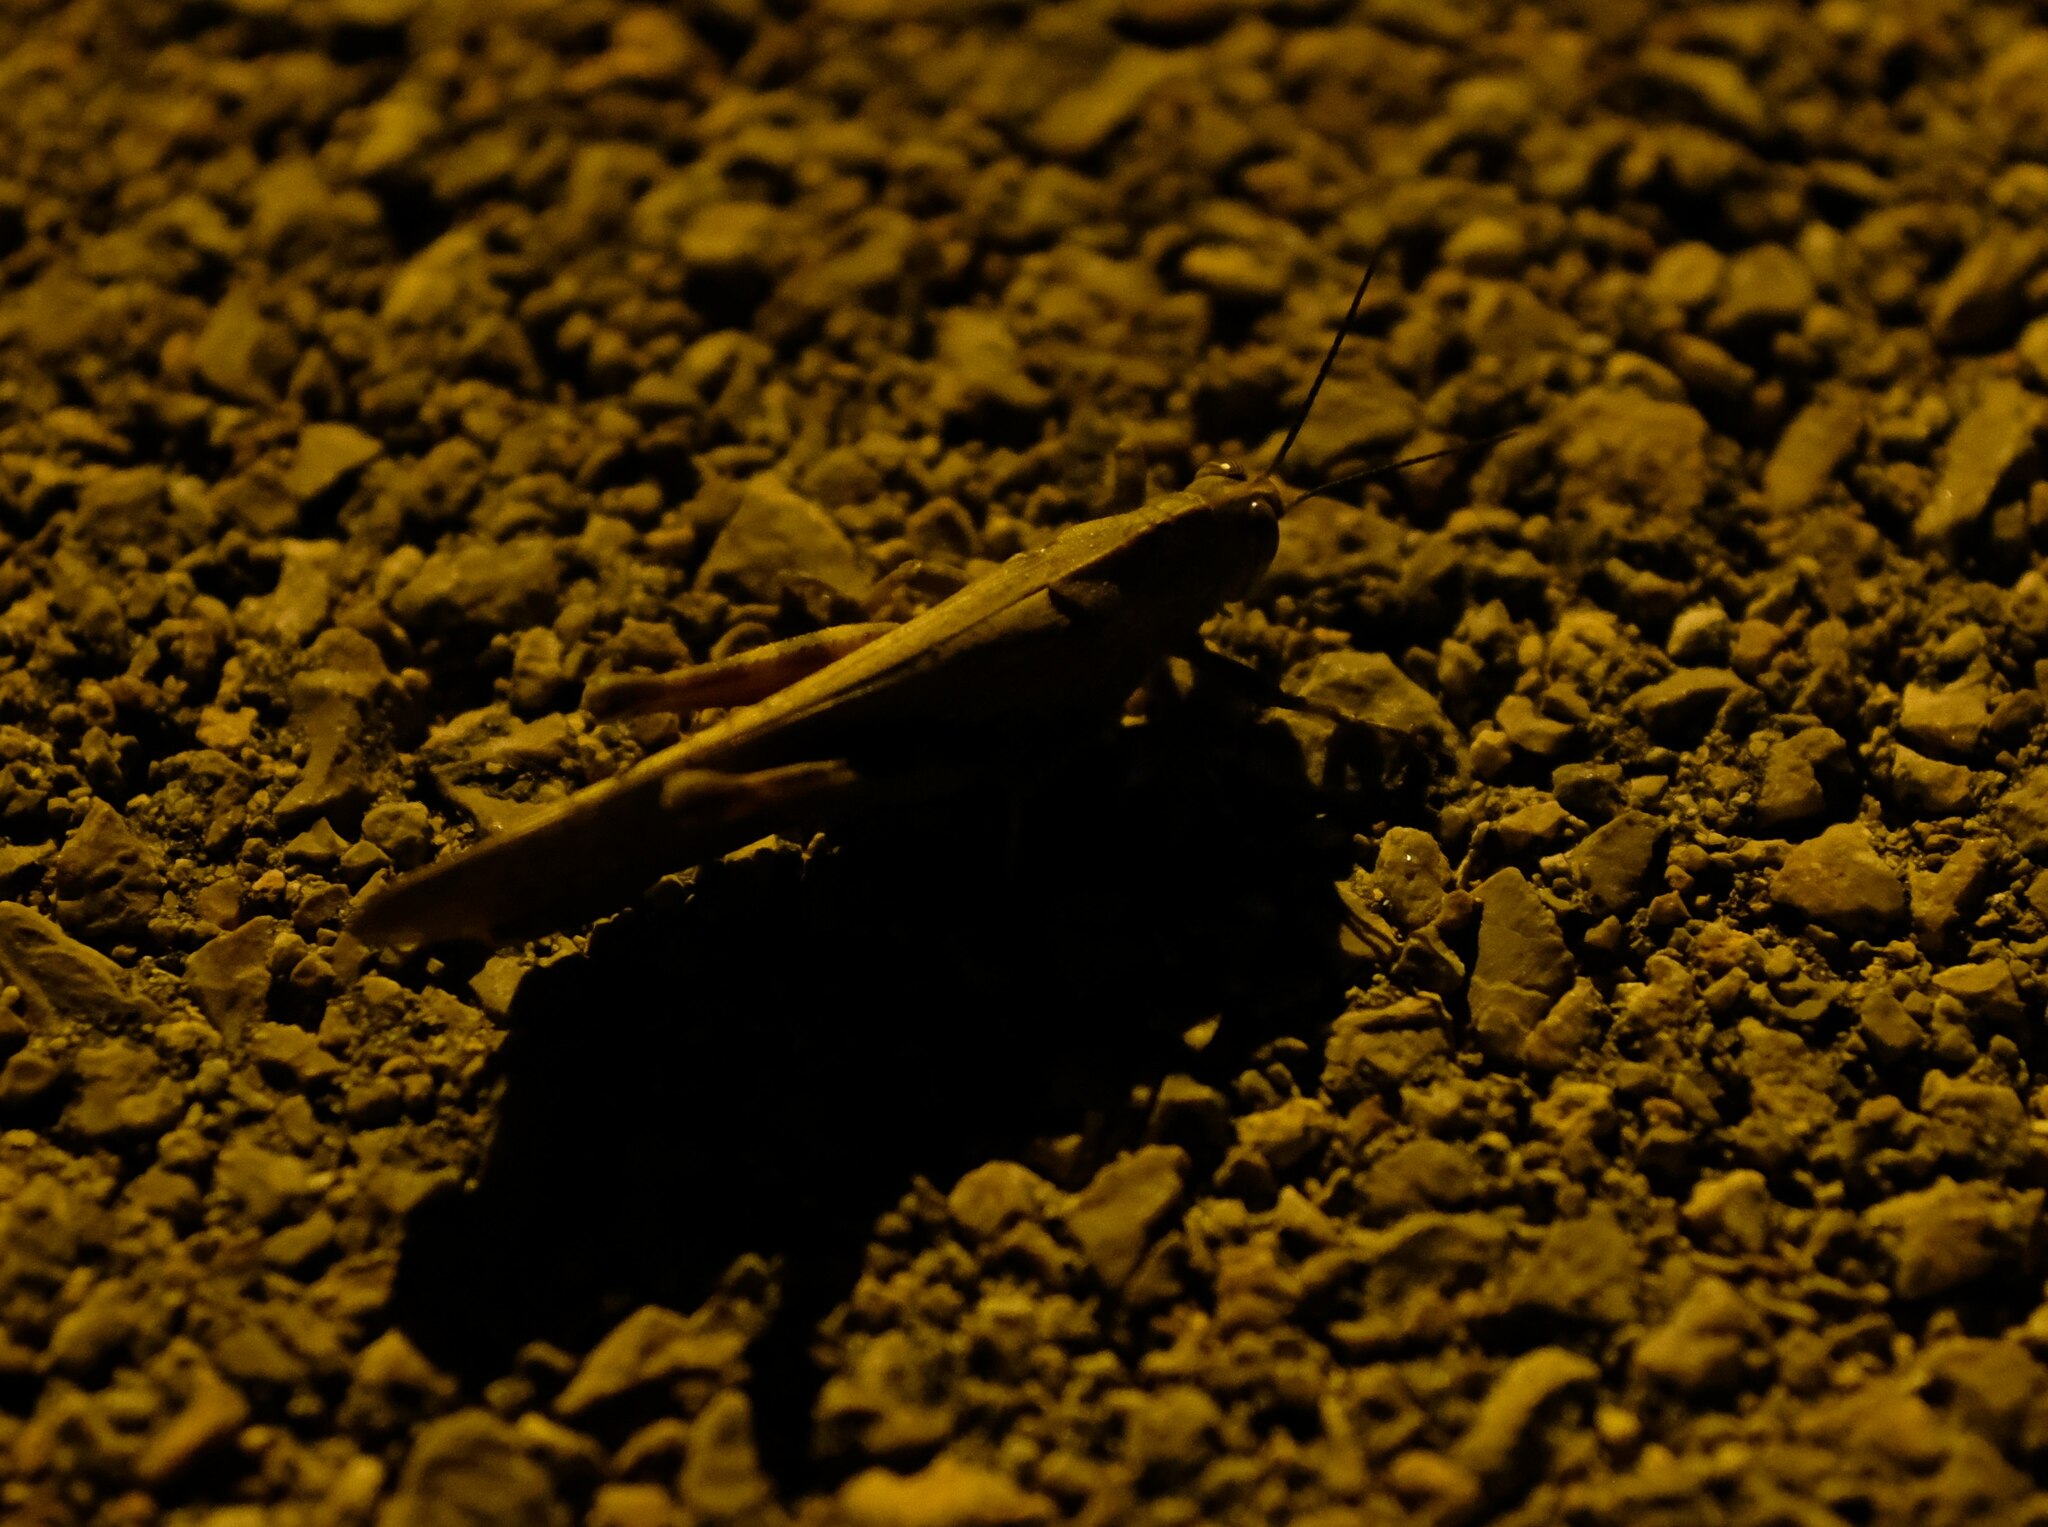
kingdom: Animalia
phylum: Arthropoda
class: Insecta
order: Orthoptera
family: Acrididae
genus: Anacridium
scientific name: Anacridium aegyptium
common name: Egyptian grasshopper
